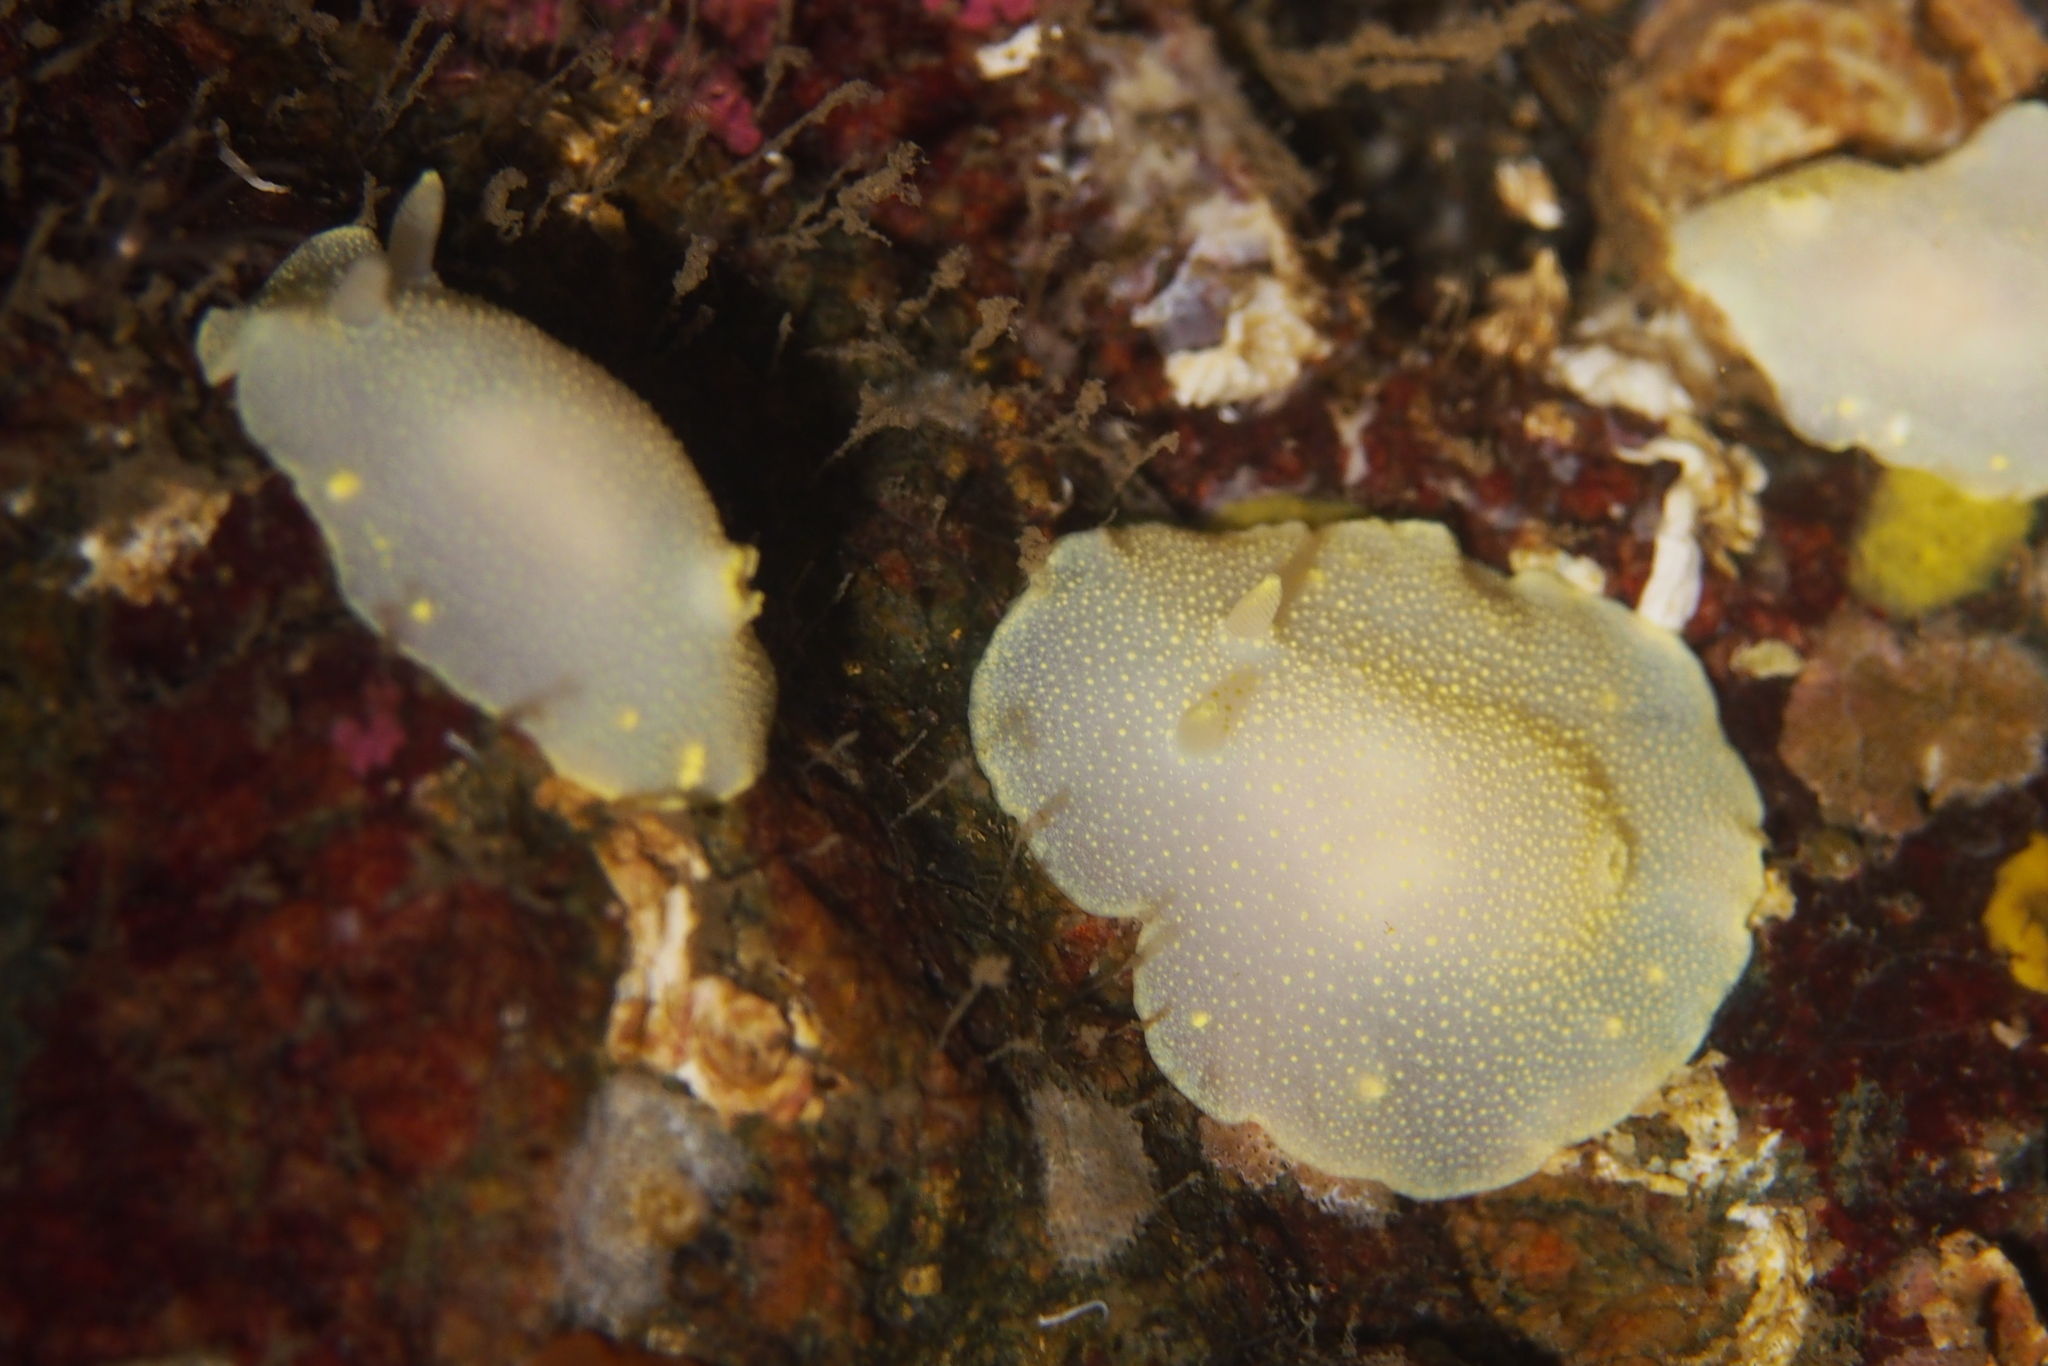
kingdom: Animalia
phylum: Mollusca
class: Gastropoda
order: Nudibranchia
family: Cadlinidae
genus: Cadlina
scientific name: Cadlina laevis
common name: White atlantic cadlina
